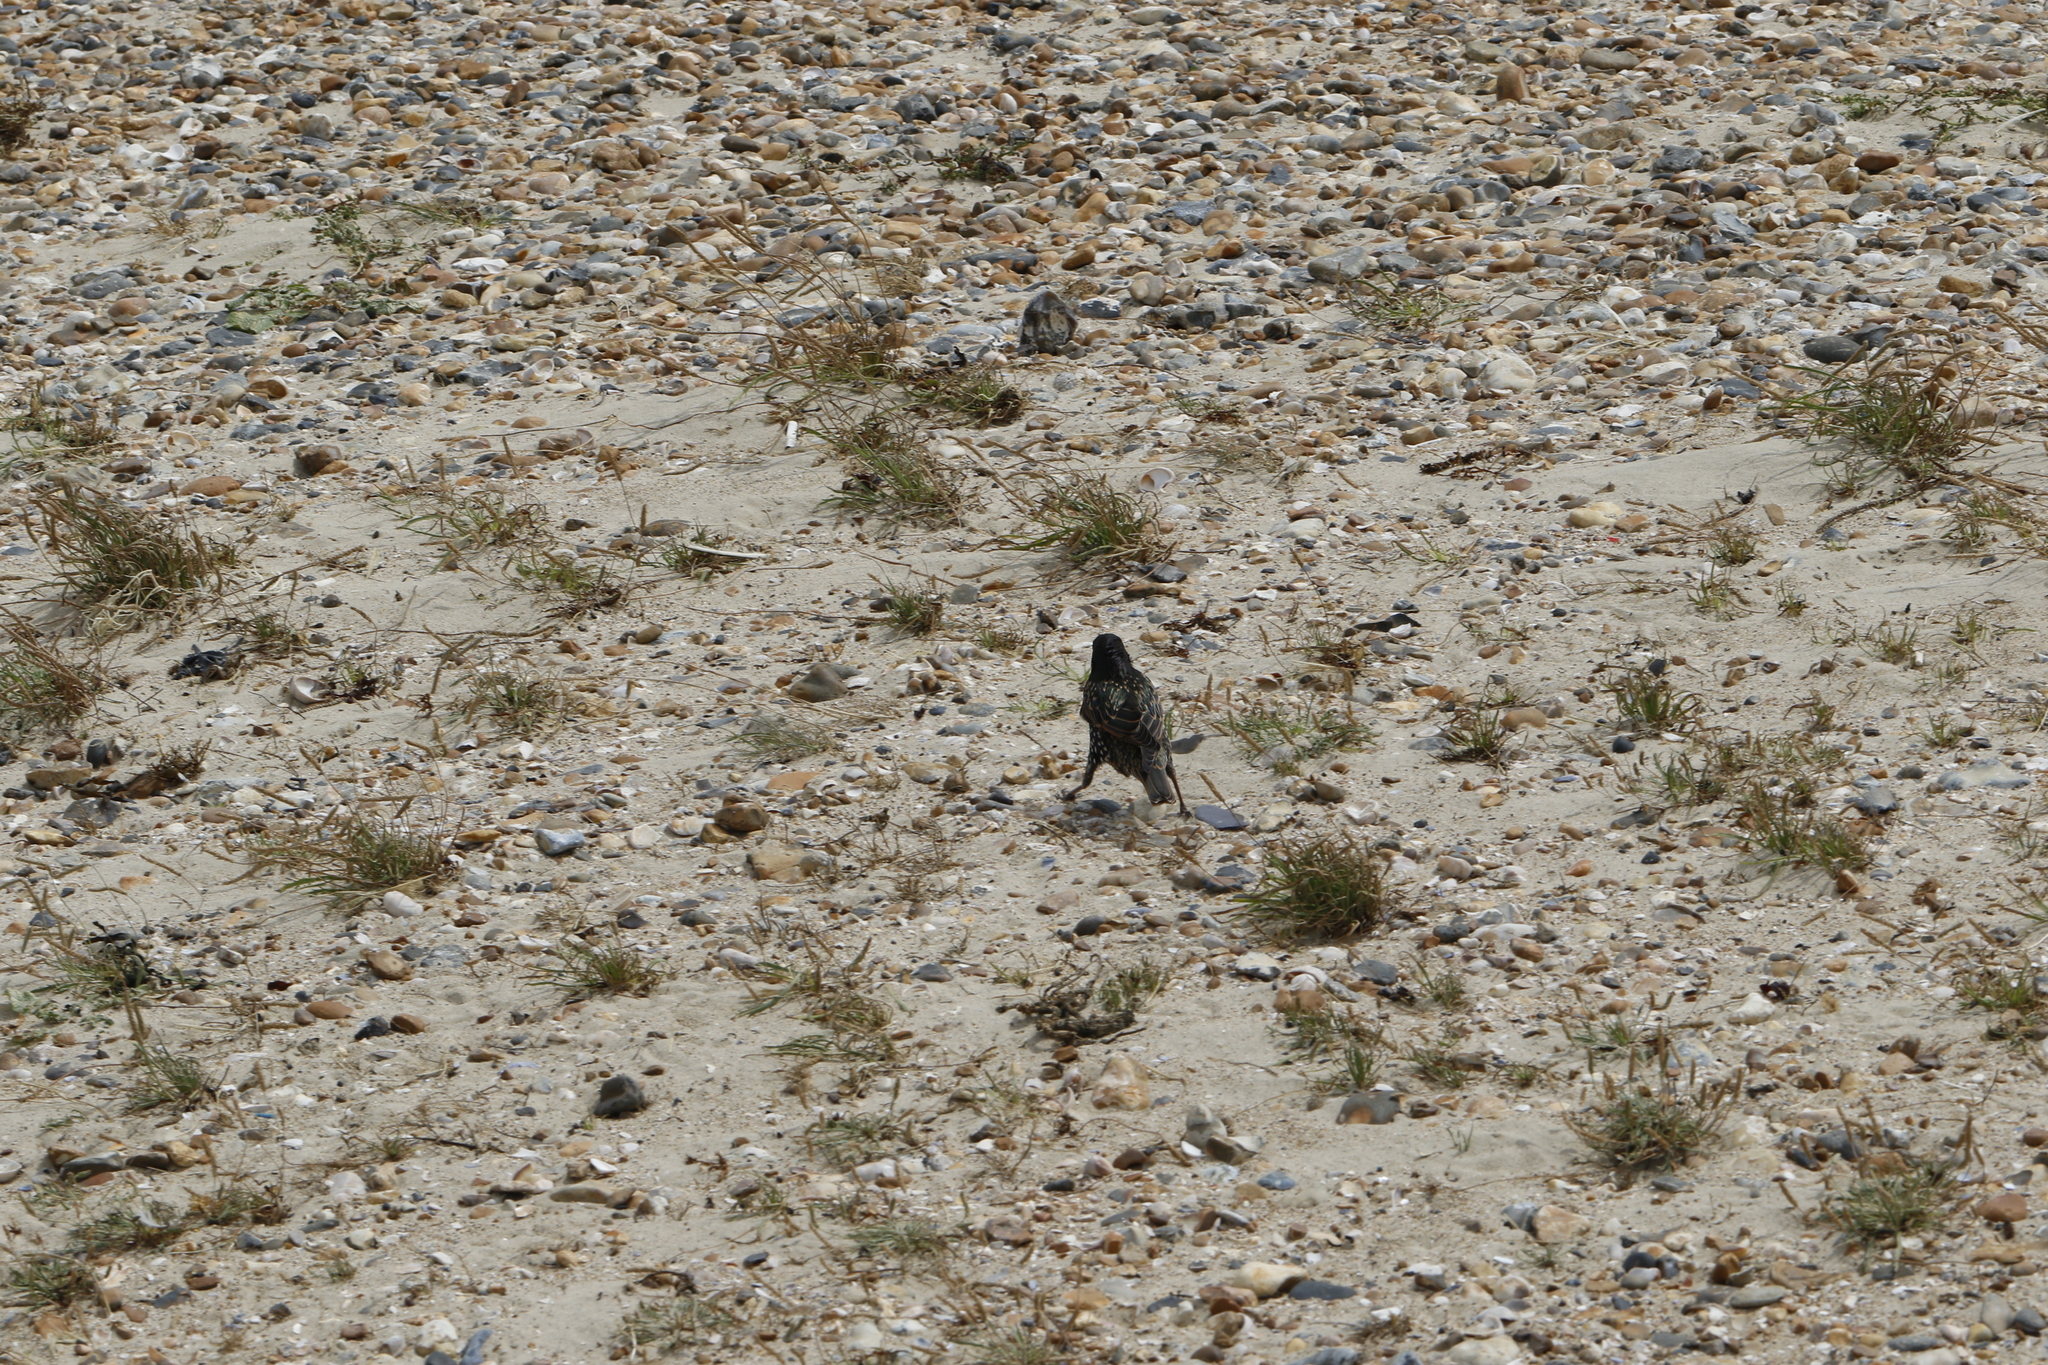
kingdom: Animalia
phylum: Chordata
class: Aves
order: Passeriformes
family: Sturnidae
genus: Sturnus
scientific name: Sturnus vulgaris
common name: Common starling
